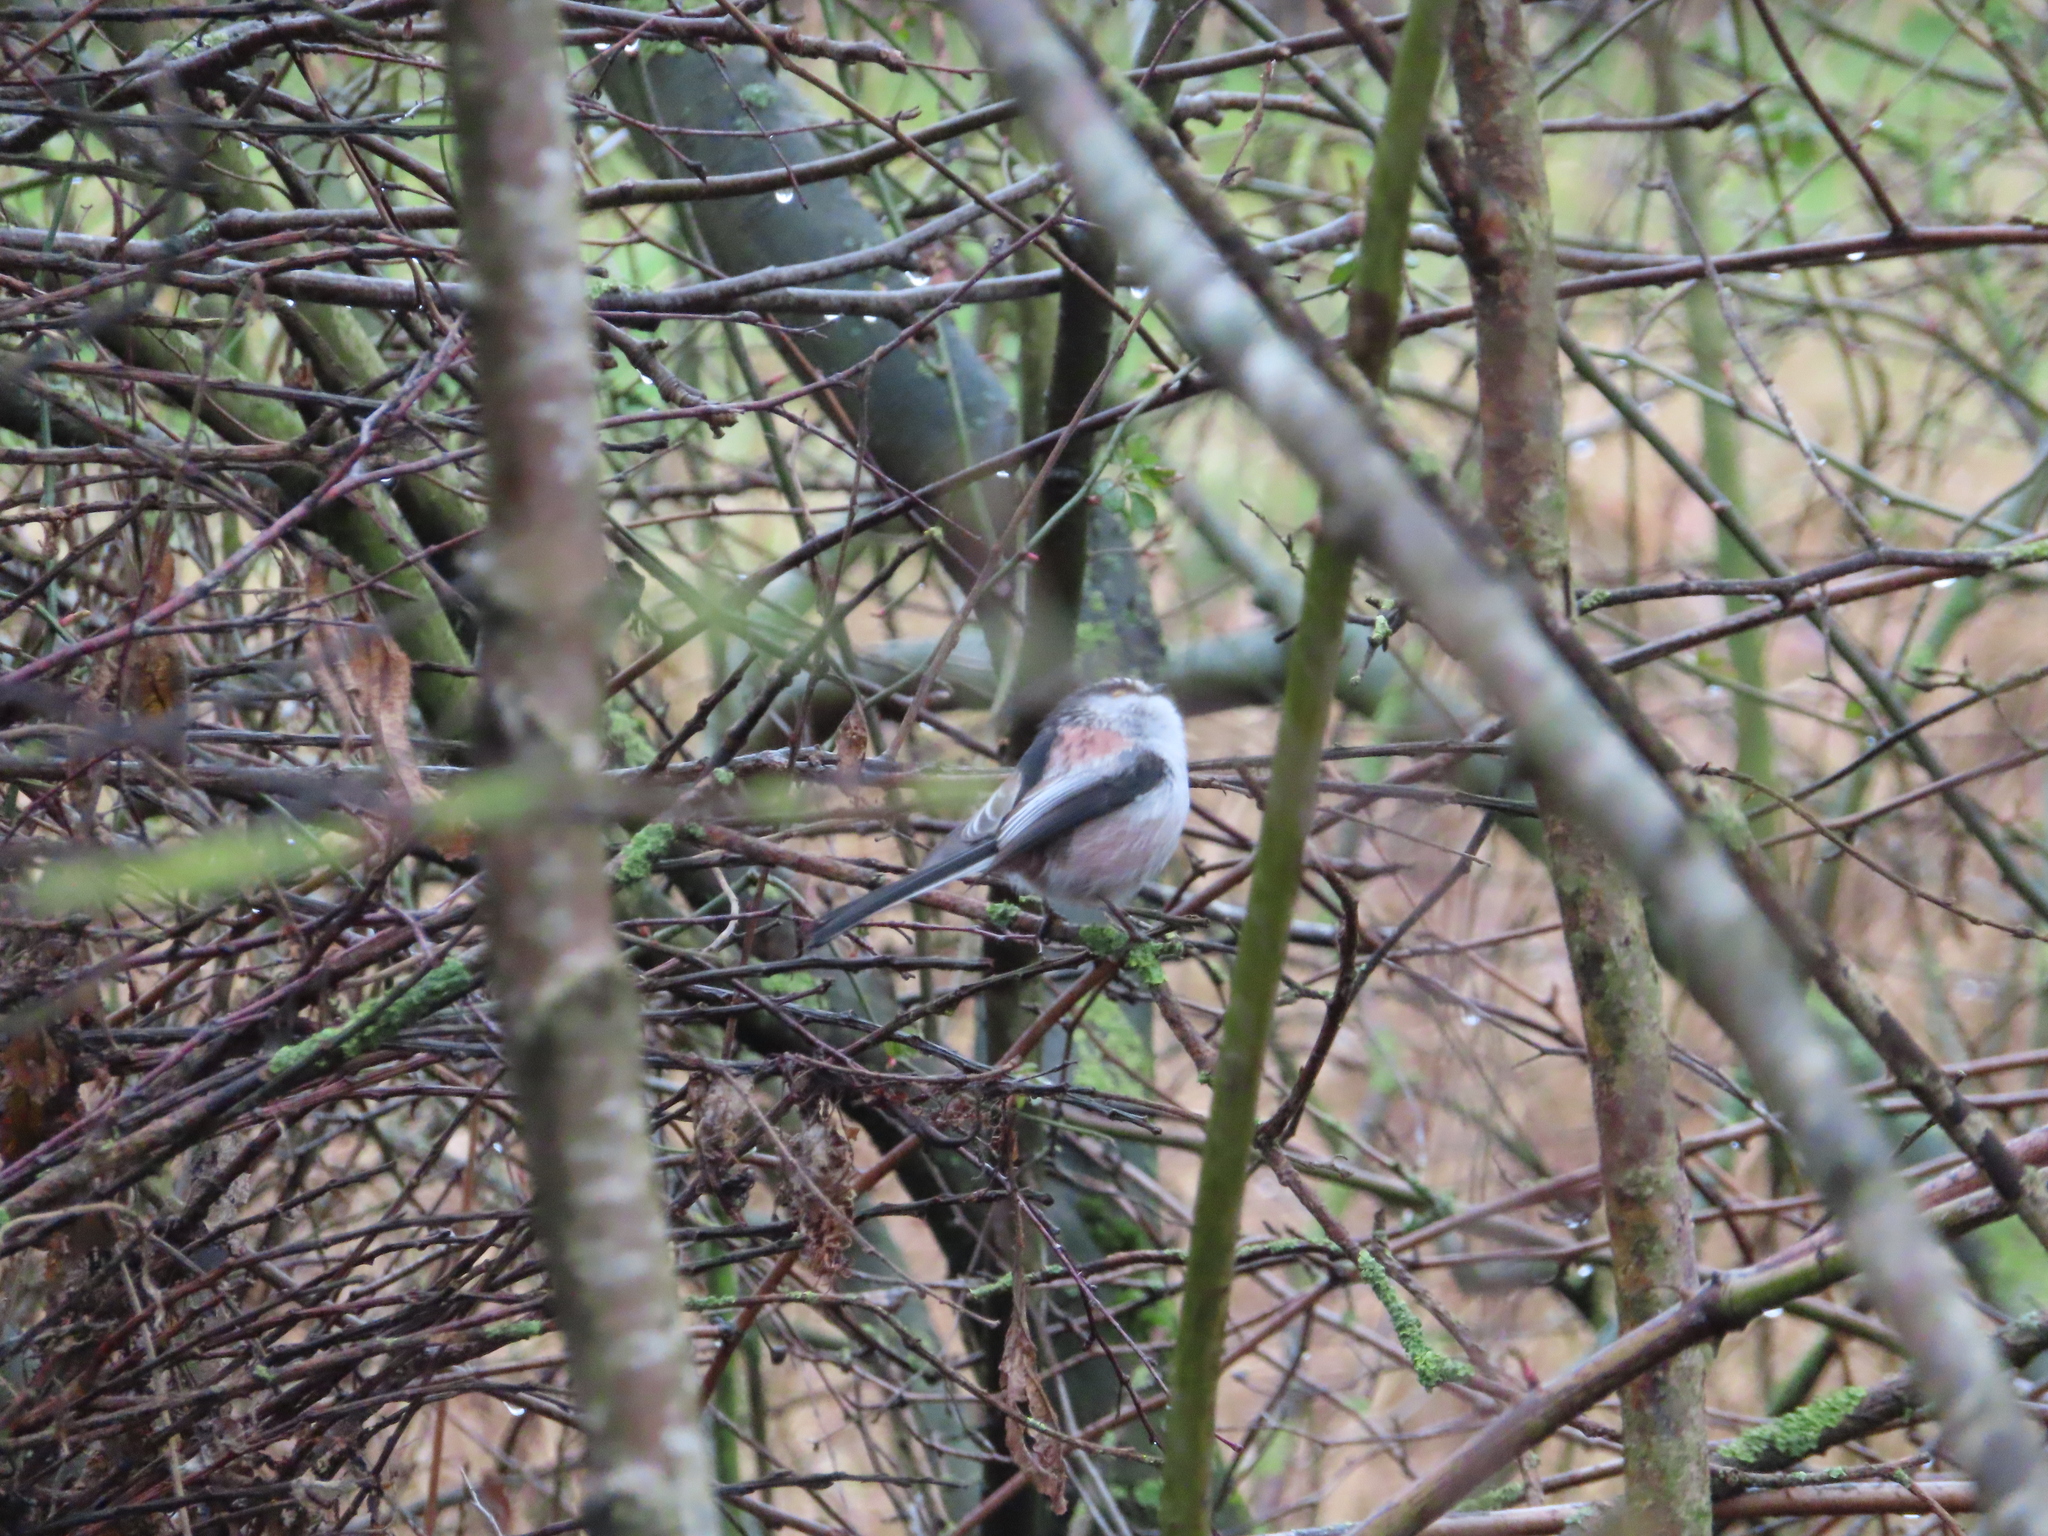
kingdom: Animalia
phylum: Chordata
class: Aves
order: Passeriformes
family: Aegithalidae
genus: Aegithalos
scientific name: Aegithalos caudatus
